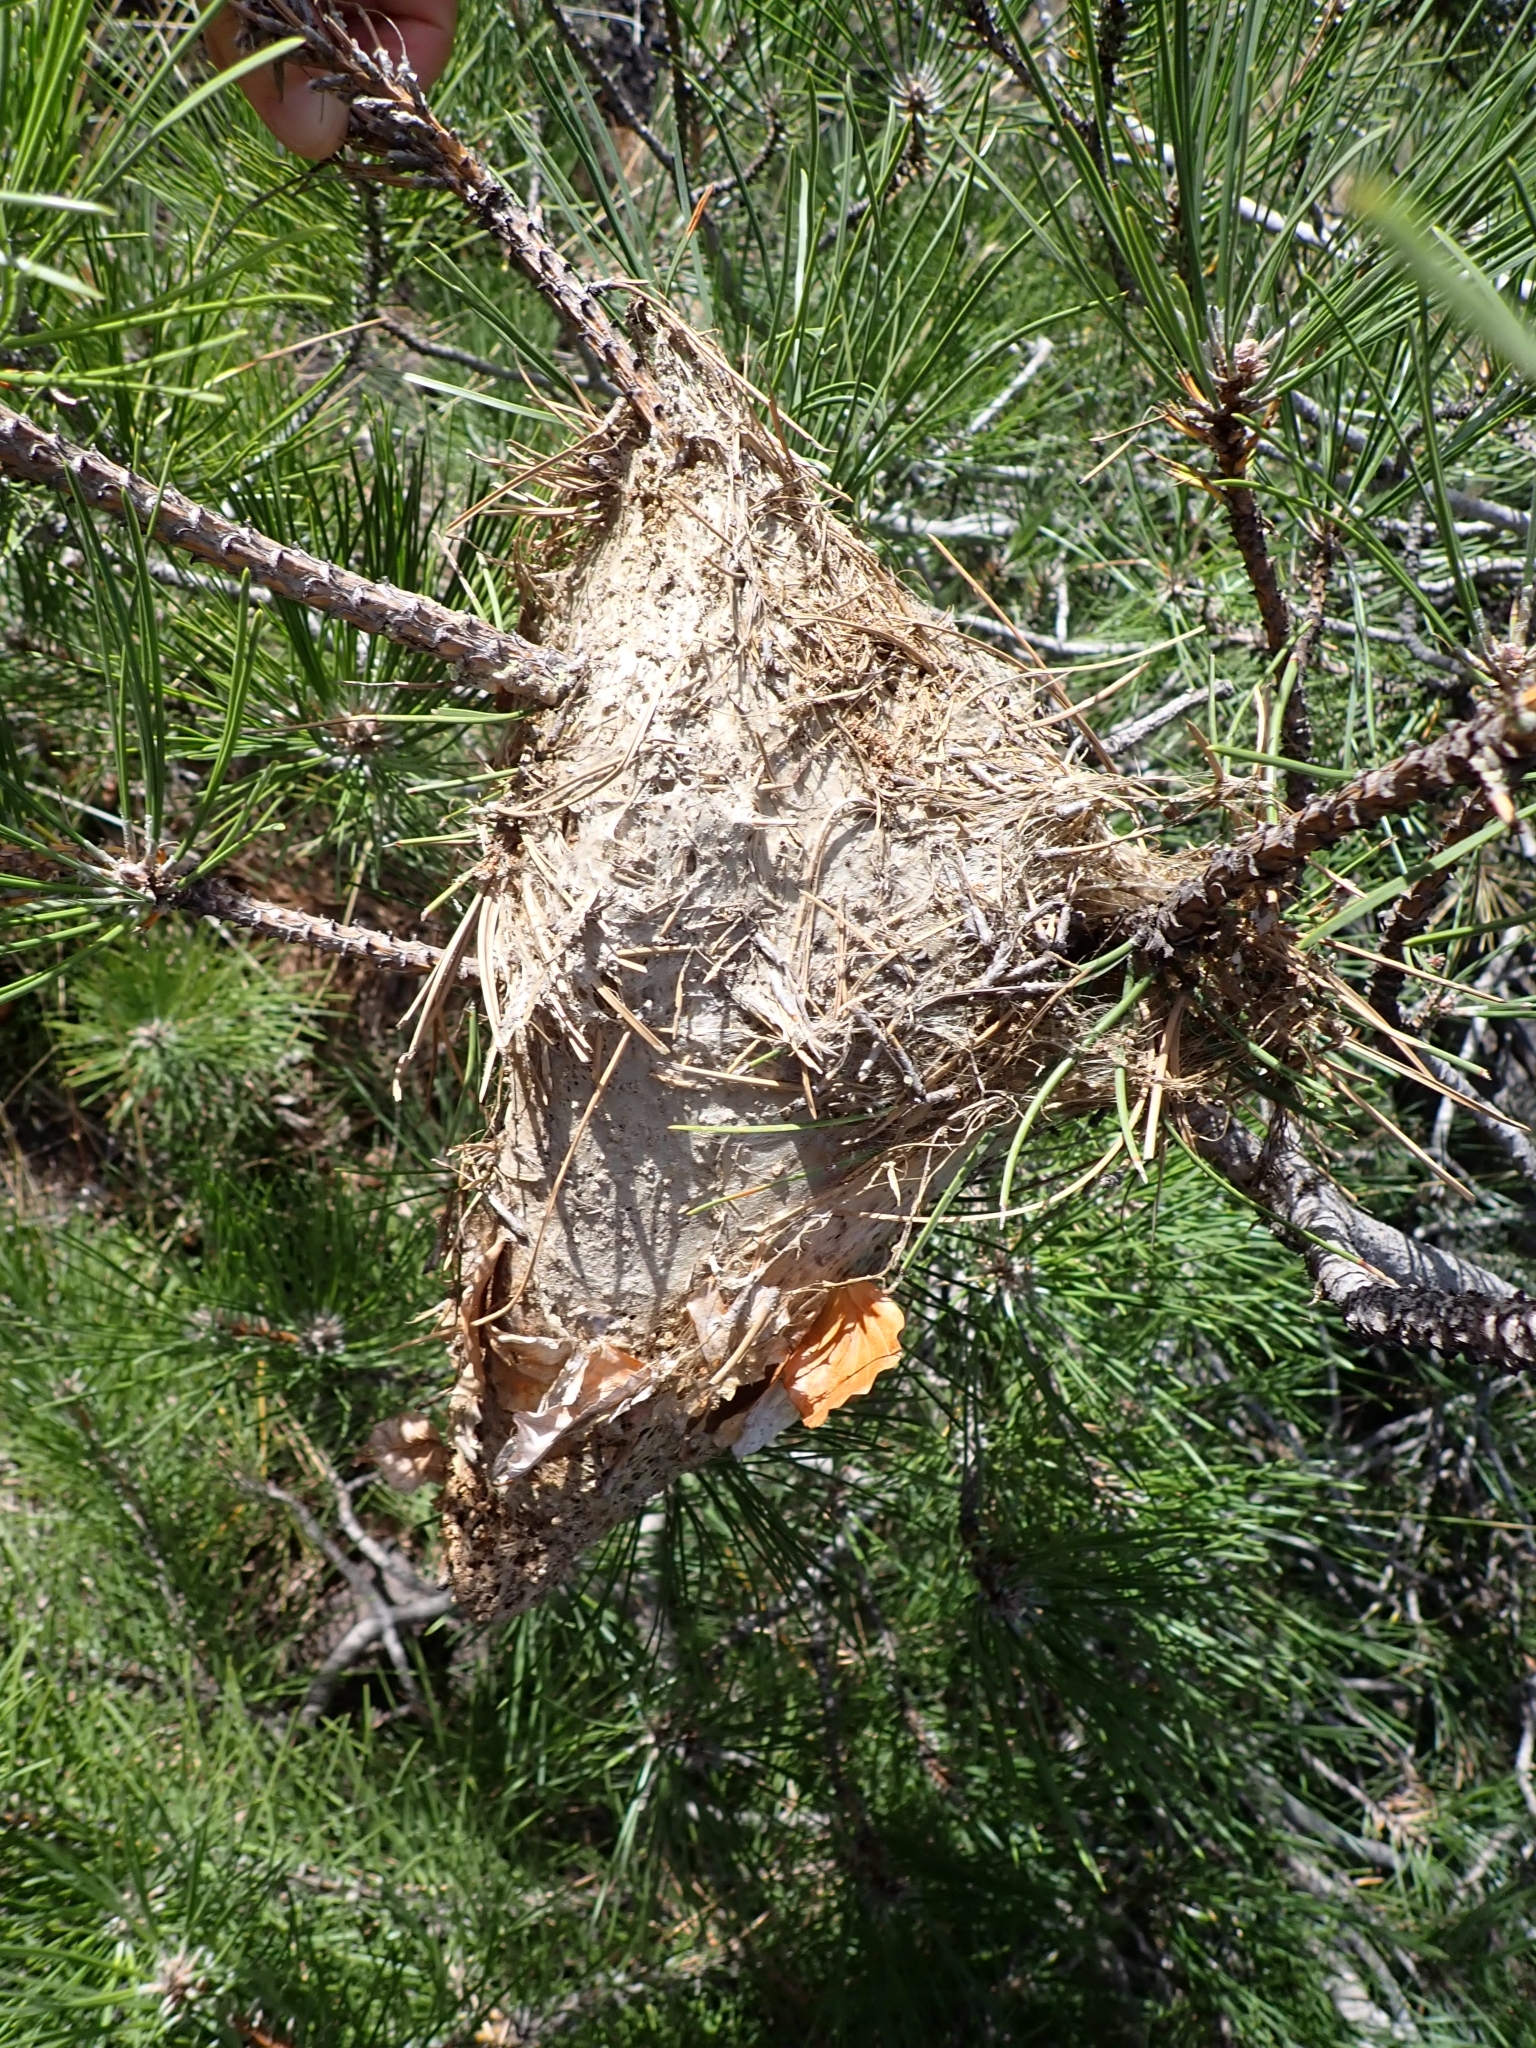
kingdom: Animalia
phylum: Arthropoda
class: Insecta
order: Lepidoptera
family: Notodontidae
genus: Thaumetopoea
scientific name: Thaumetopoea pityocampa
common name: Pine processionary
